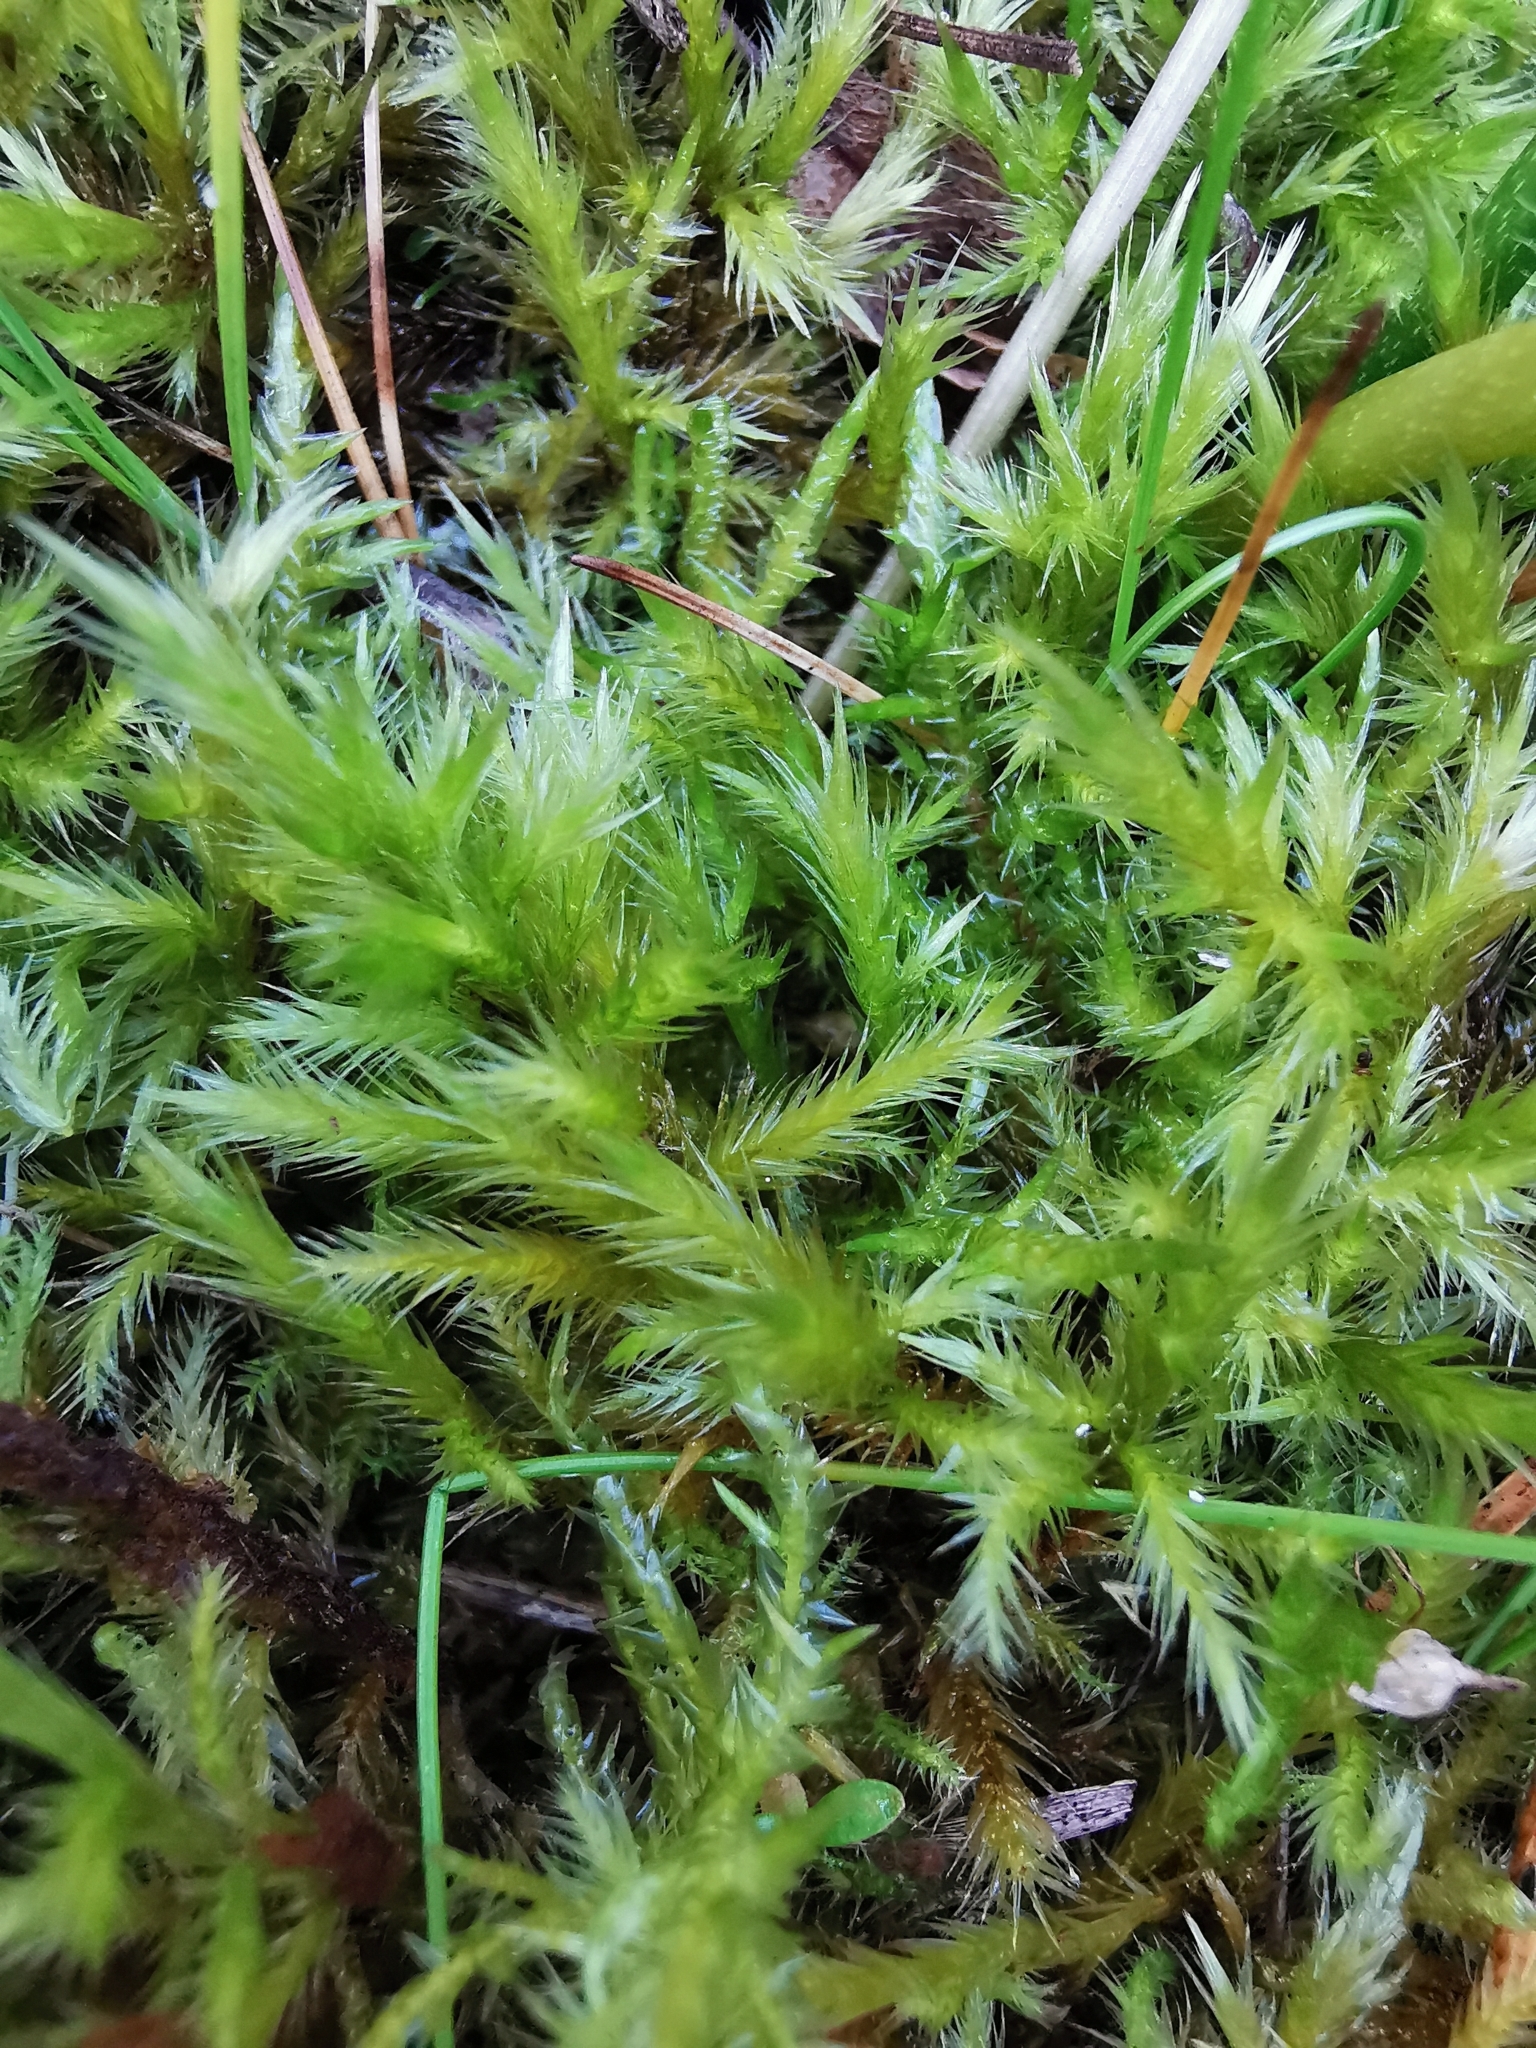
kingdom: Plantae
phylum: Bryophyta
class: Bryopsida
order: Hypnales
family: Amblystegiaceae
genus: Tomentypnum
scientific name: Tomentypnum nitens
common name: Golden fuzzy fen moss
